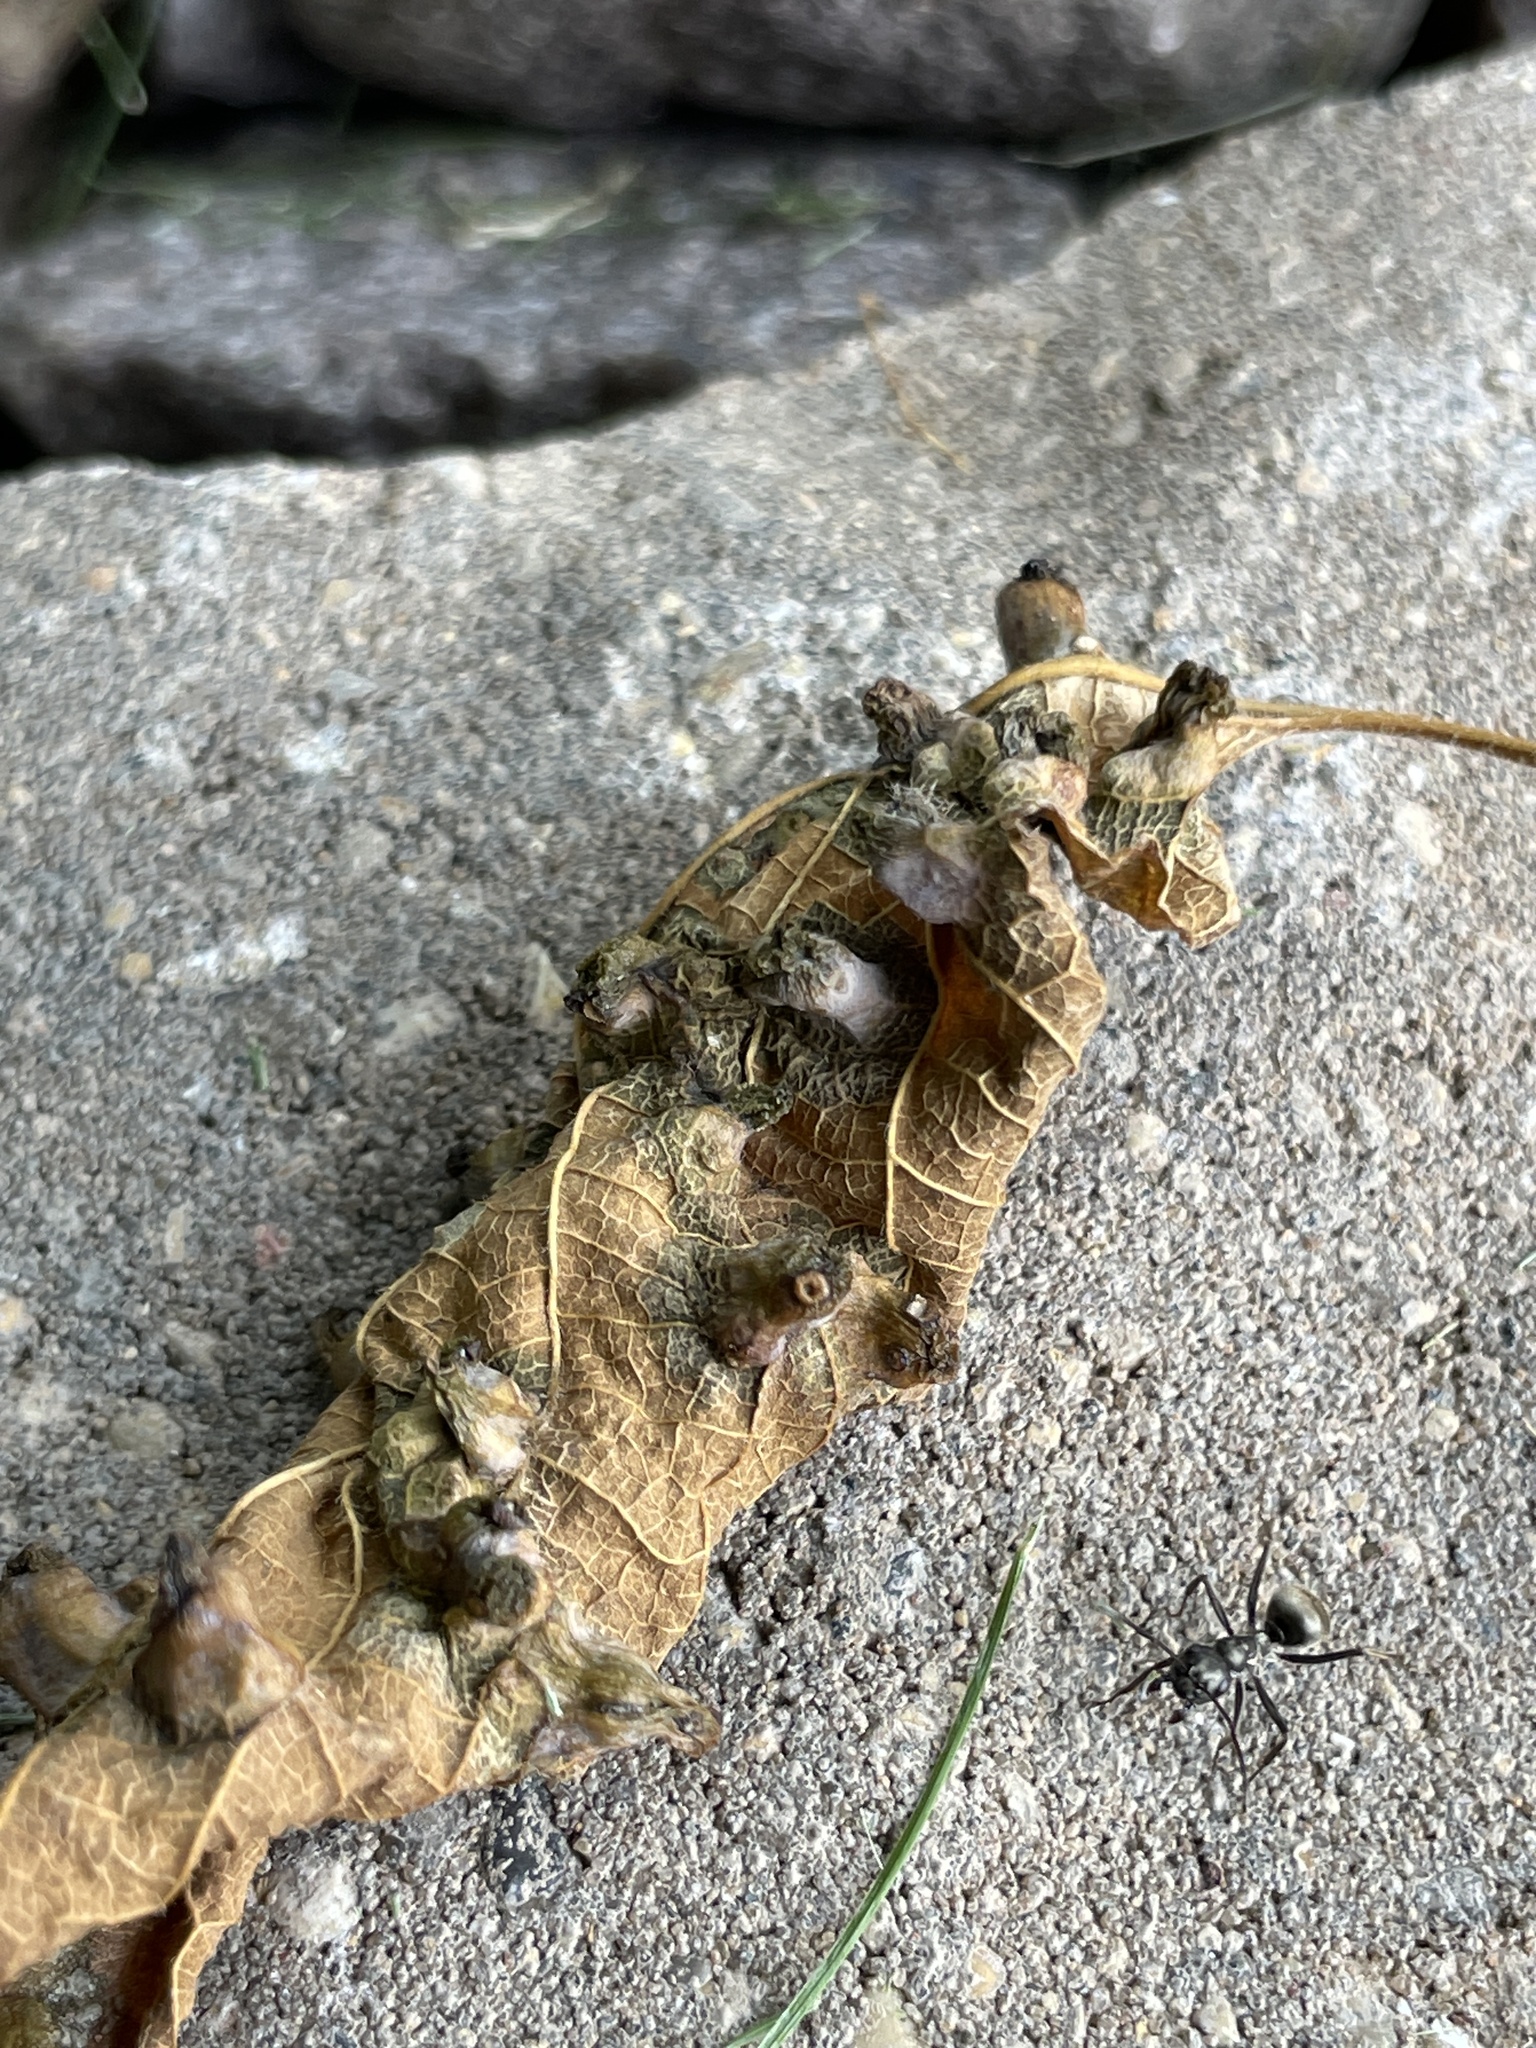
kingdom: Animalia
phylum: Arthropoda
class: Insecta
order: Hemiptera
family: Aphalaridae
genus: Pachypsylla
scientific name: Pachypsylla celtidismamma
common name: Hackberry nipplegall psyllid
